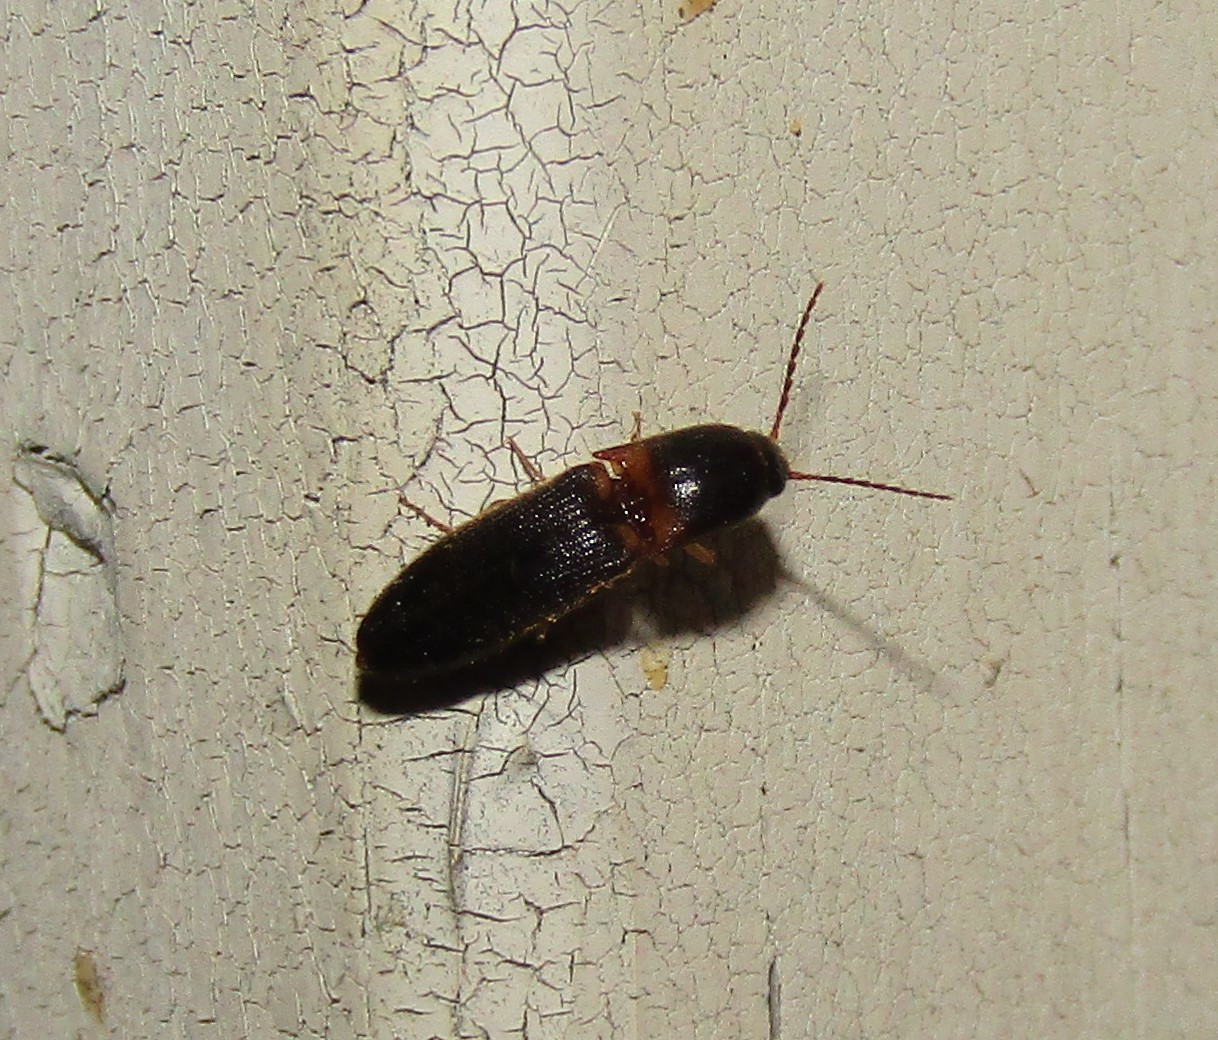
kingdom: Animalia
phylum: Arthropoda
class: Insecta
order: Coleoptera
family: Elateridae
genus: Megapenthes
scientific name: Megapenthes
